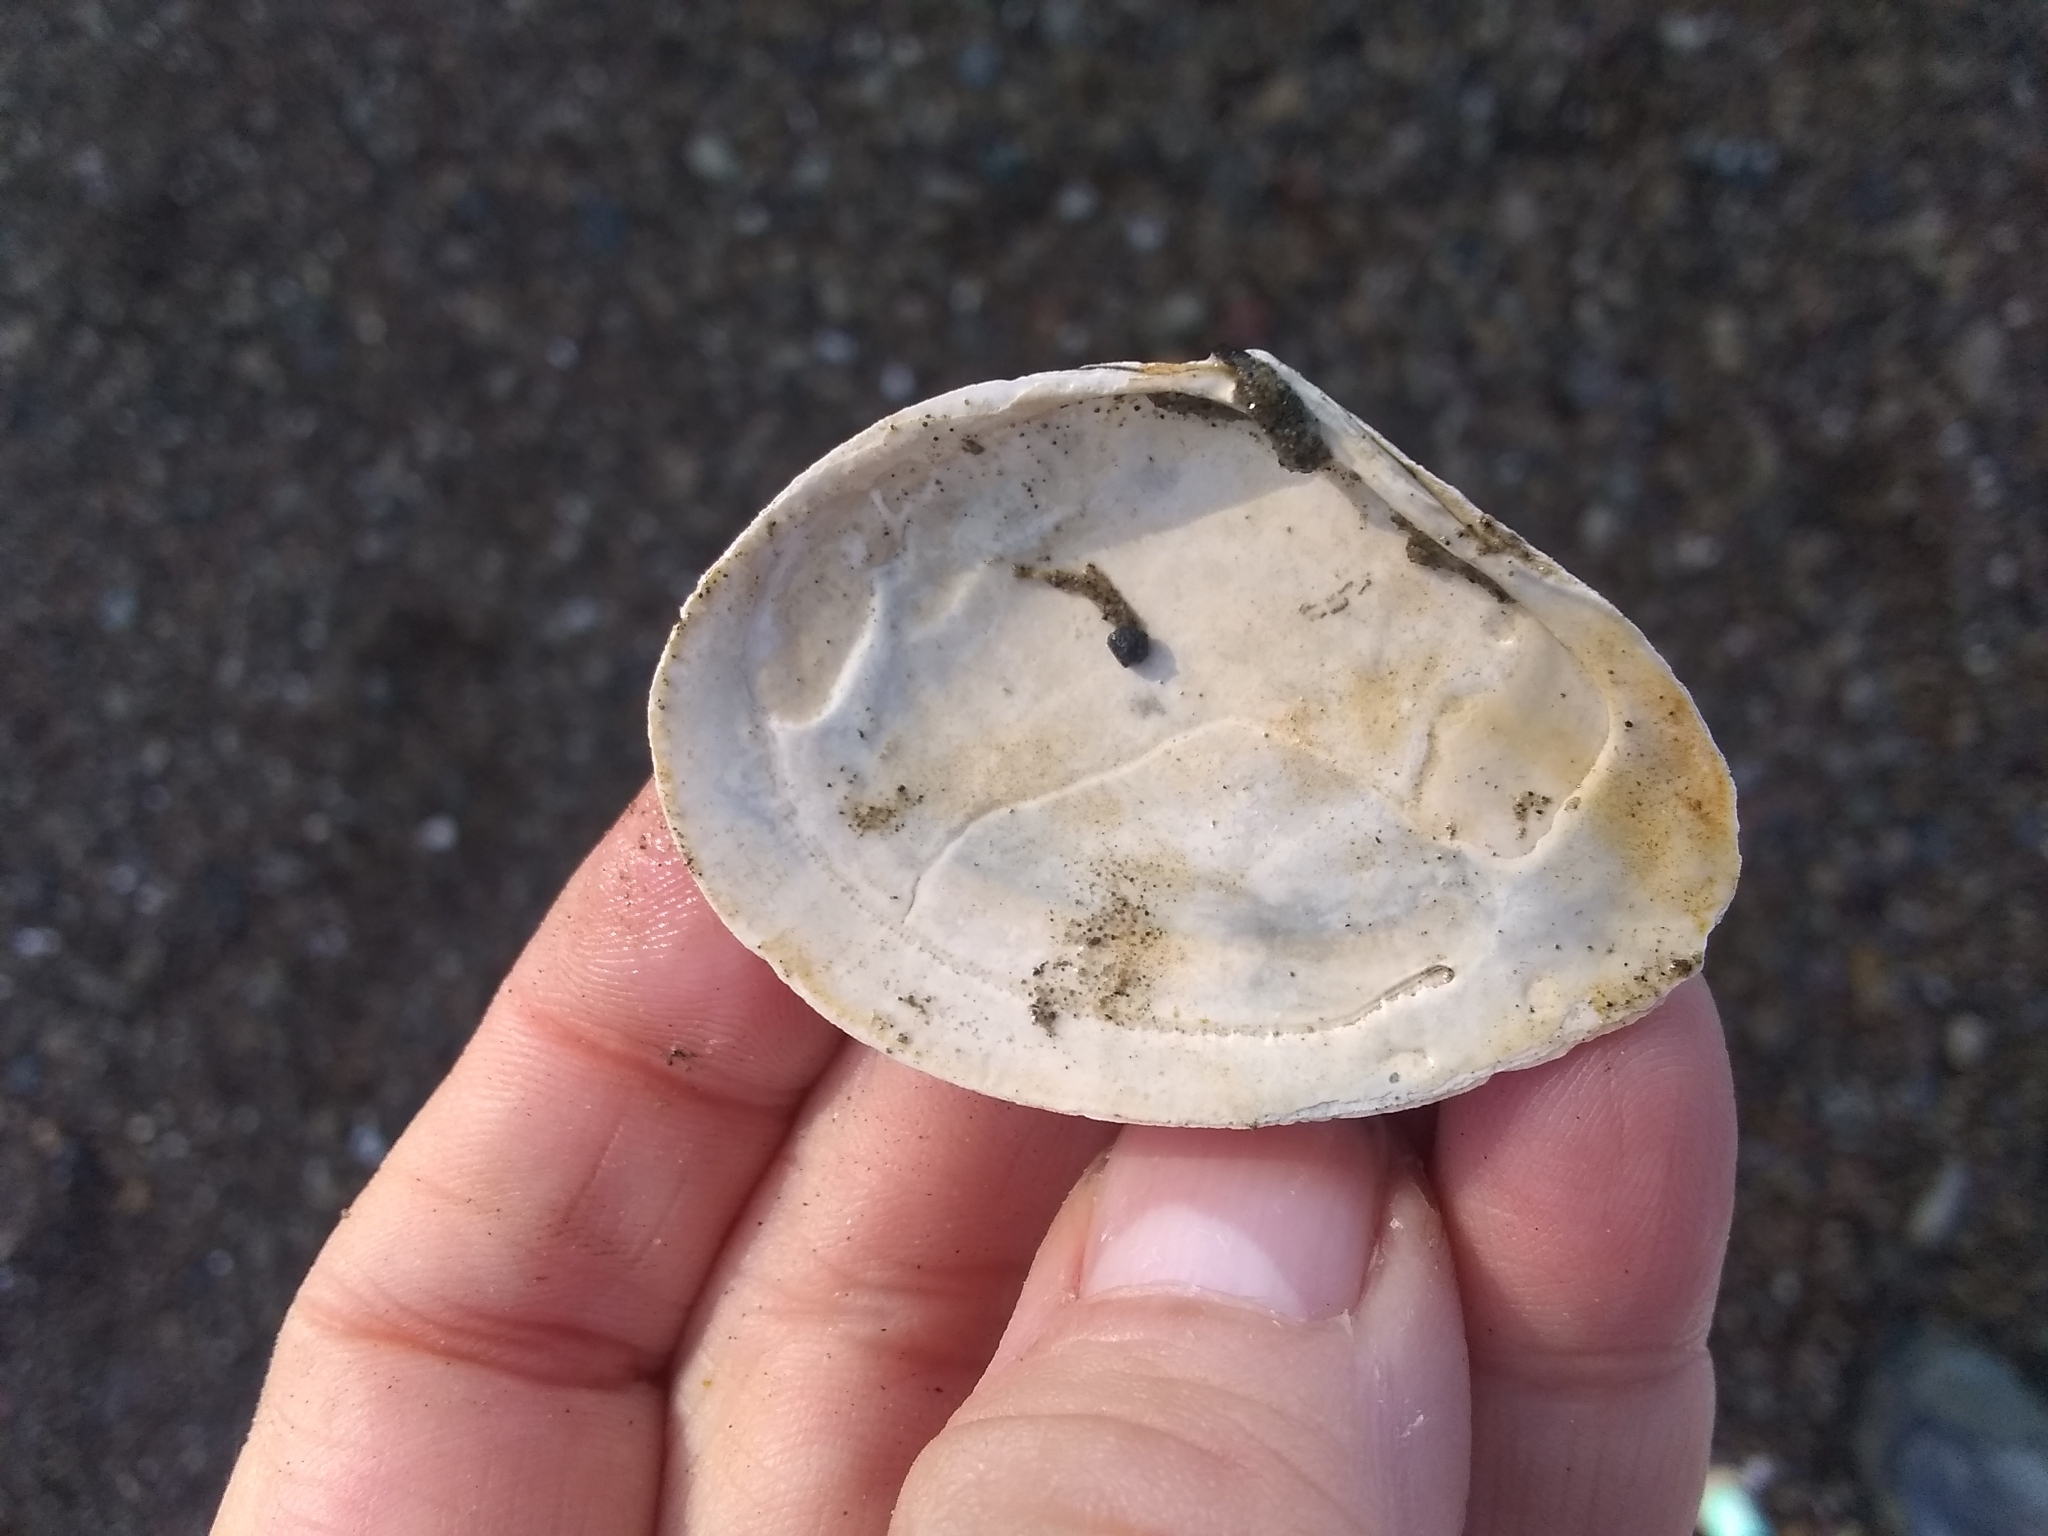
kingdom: Animalia
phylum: Mollusca
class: Bivalvia
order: Cardiida
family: Tellinidae
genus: Macoma
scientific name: Macoma nasuta
